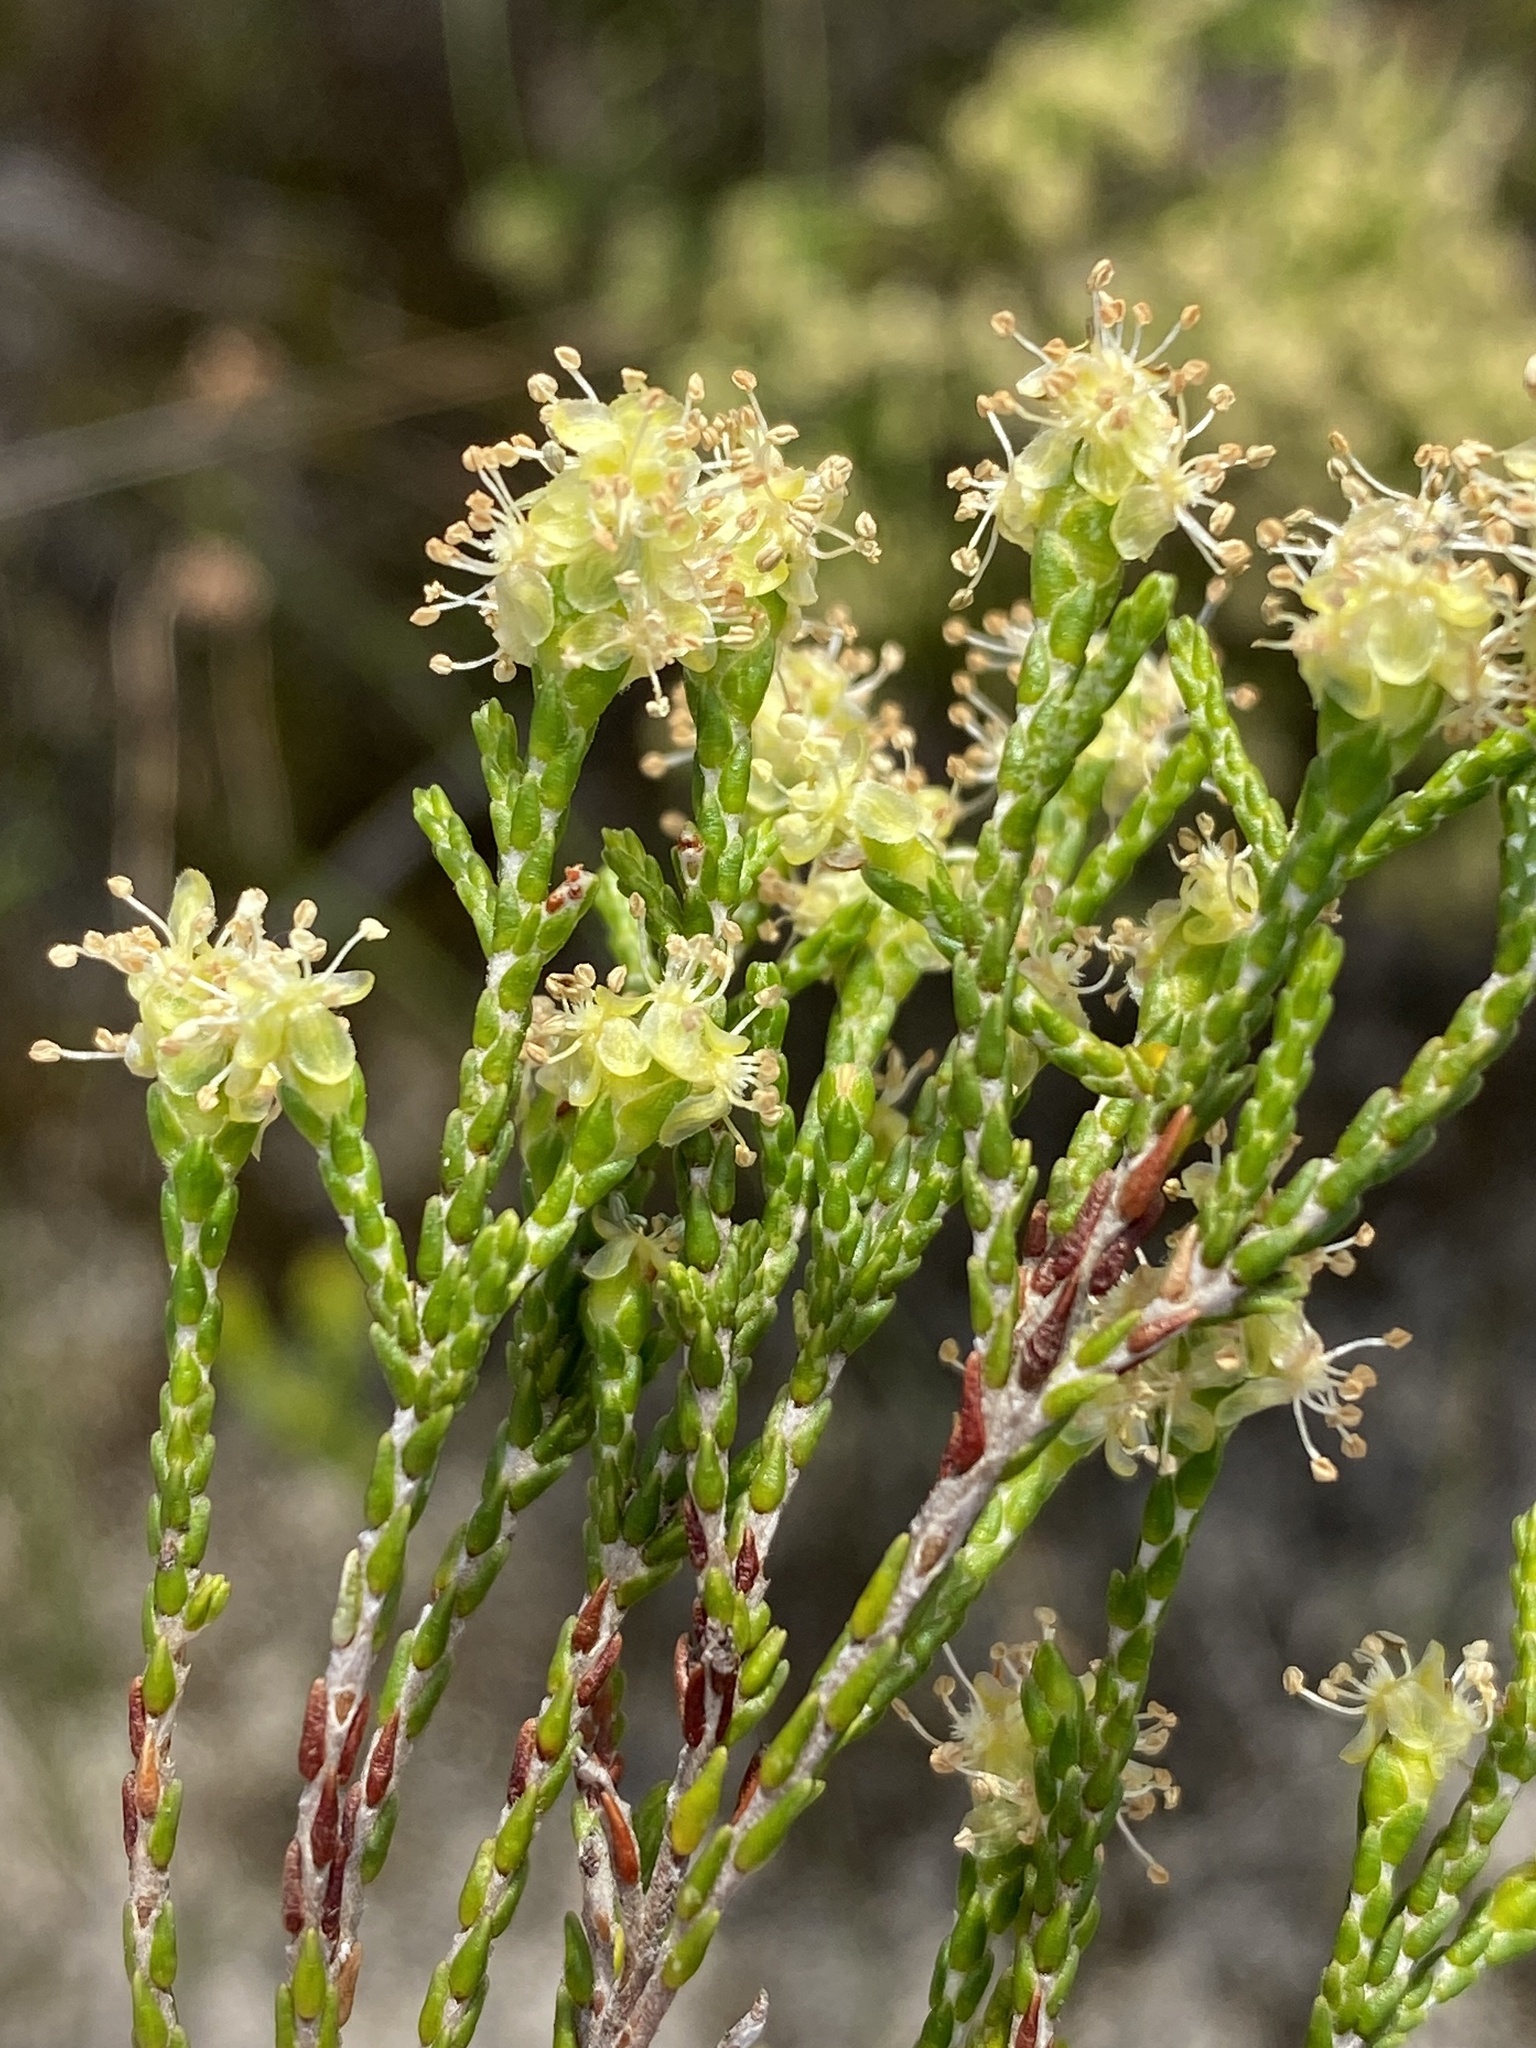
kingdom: Plantae
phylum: Tracheophyta
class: Magnoliopsida
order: Malvales
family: Thymelaeaceae
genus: Passerina
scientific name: Passerina paleacea
